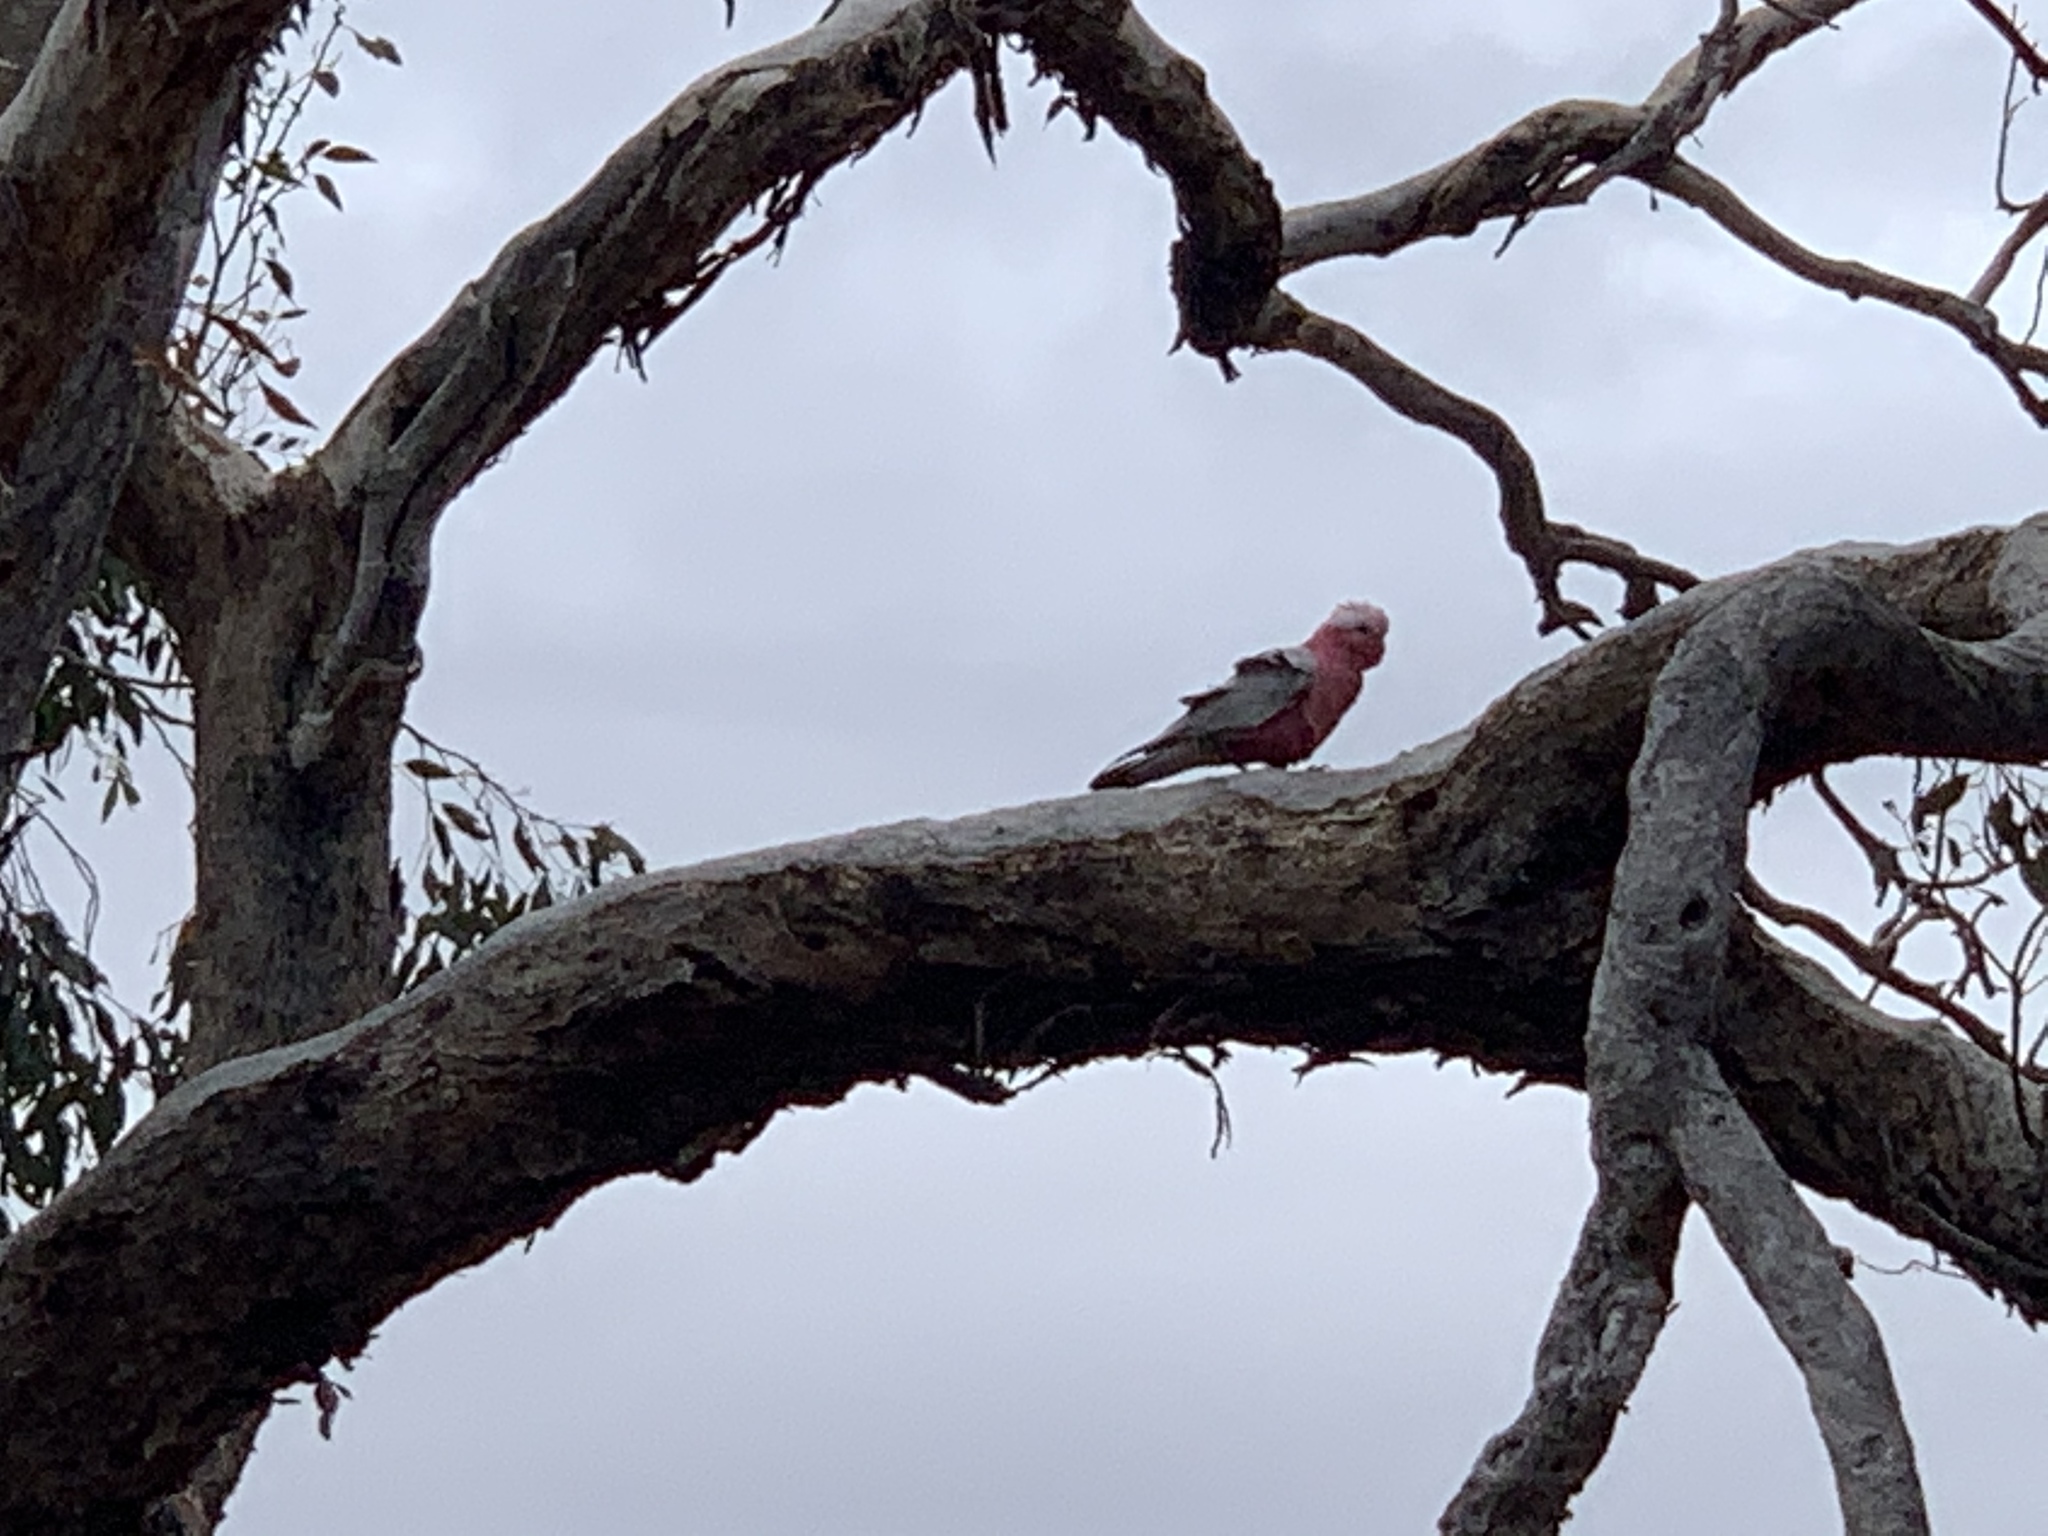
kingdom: Animalia
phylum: Chordata
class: Aves
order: Psittaciformes
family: Psittacidae
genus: Eolophus
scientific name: Eolophus roseicapilla
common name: Galah
